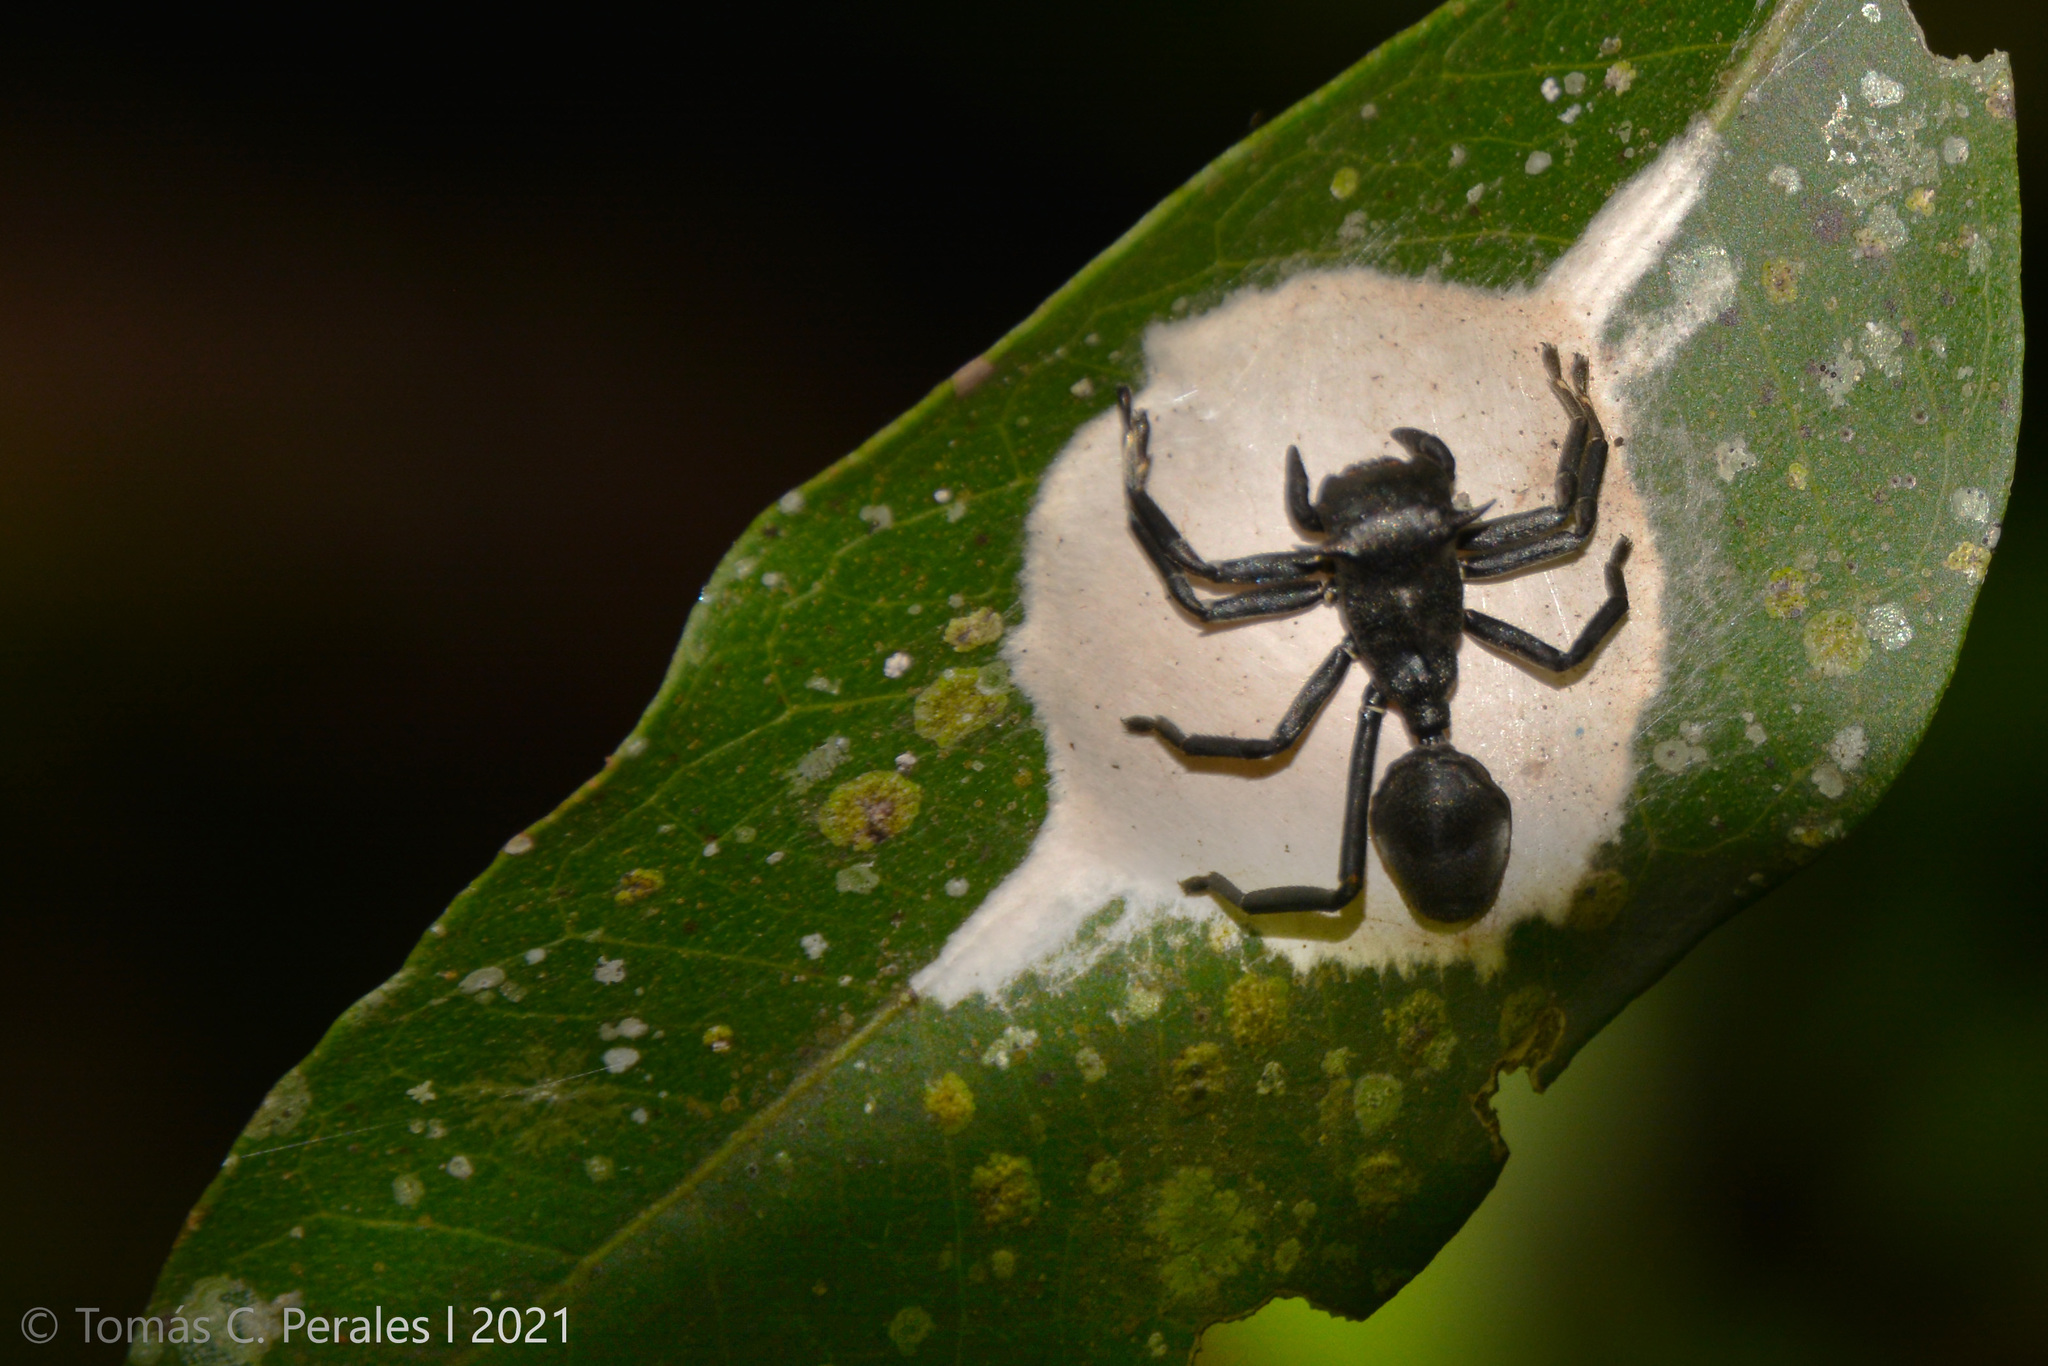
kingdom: Animalia
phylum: Arthropoda
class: Arachnida
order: Araneae
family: Thomisidae
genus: Aphantochilus
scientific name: Aphantochilus rogersi
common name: Crab spiders
